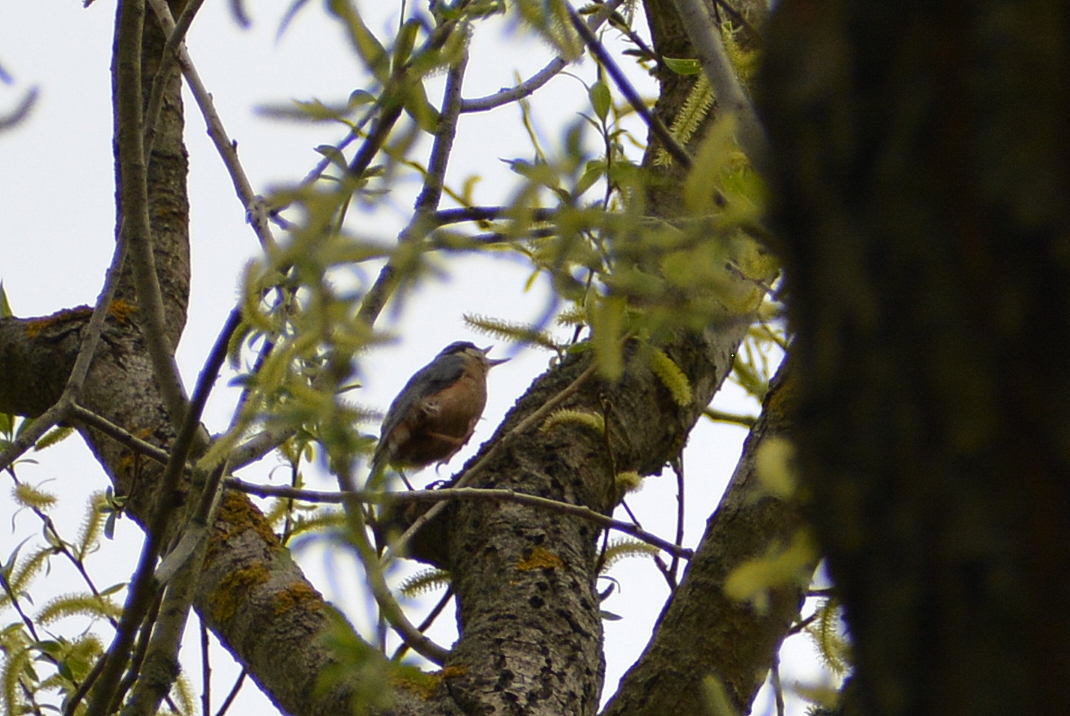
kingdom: Animalia
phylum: Chordata
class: Aves
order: Passeriformes
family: Sittidae
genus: Sitta
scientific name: Sitta europaea
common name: Eurasian nuthatch
